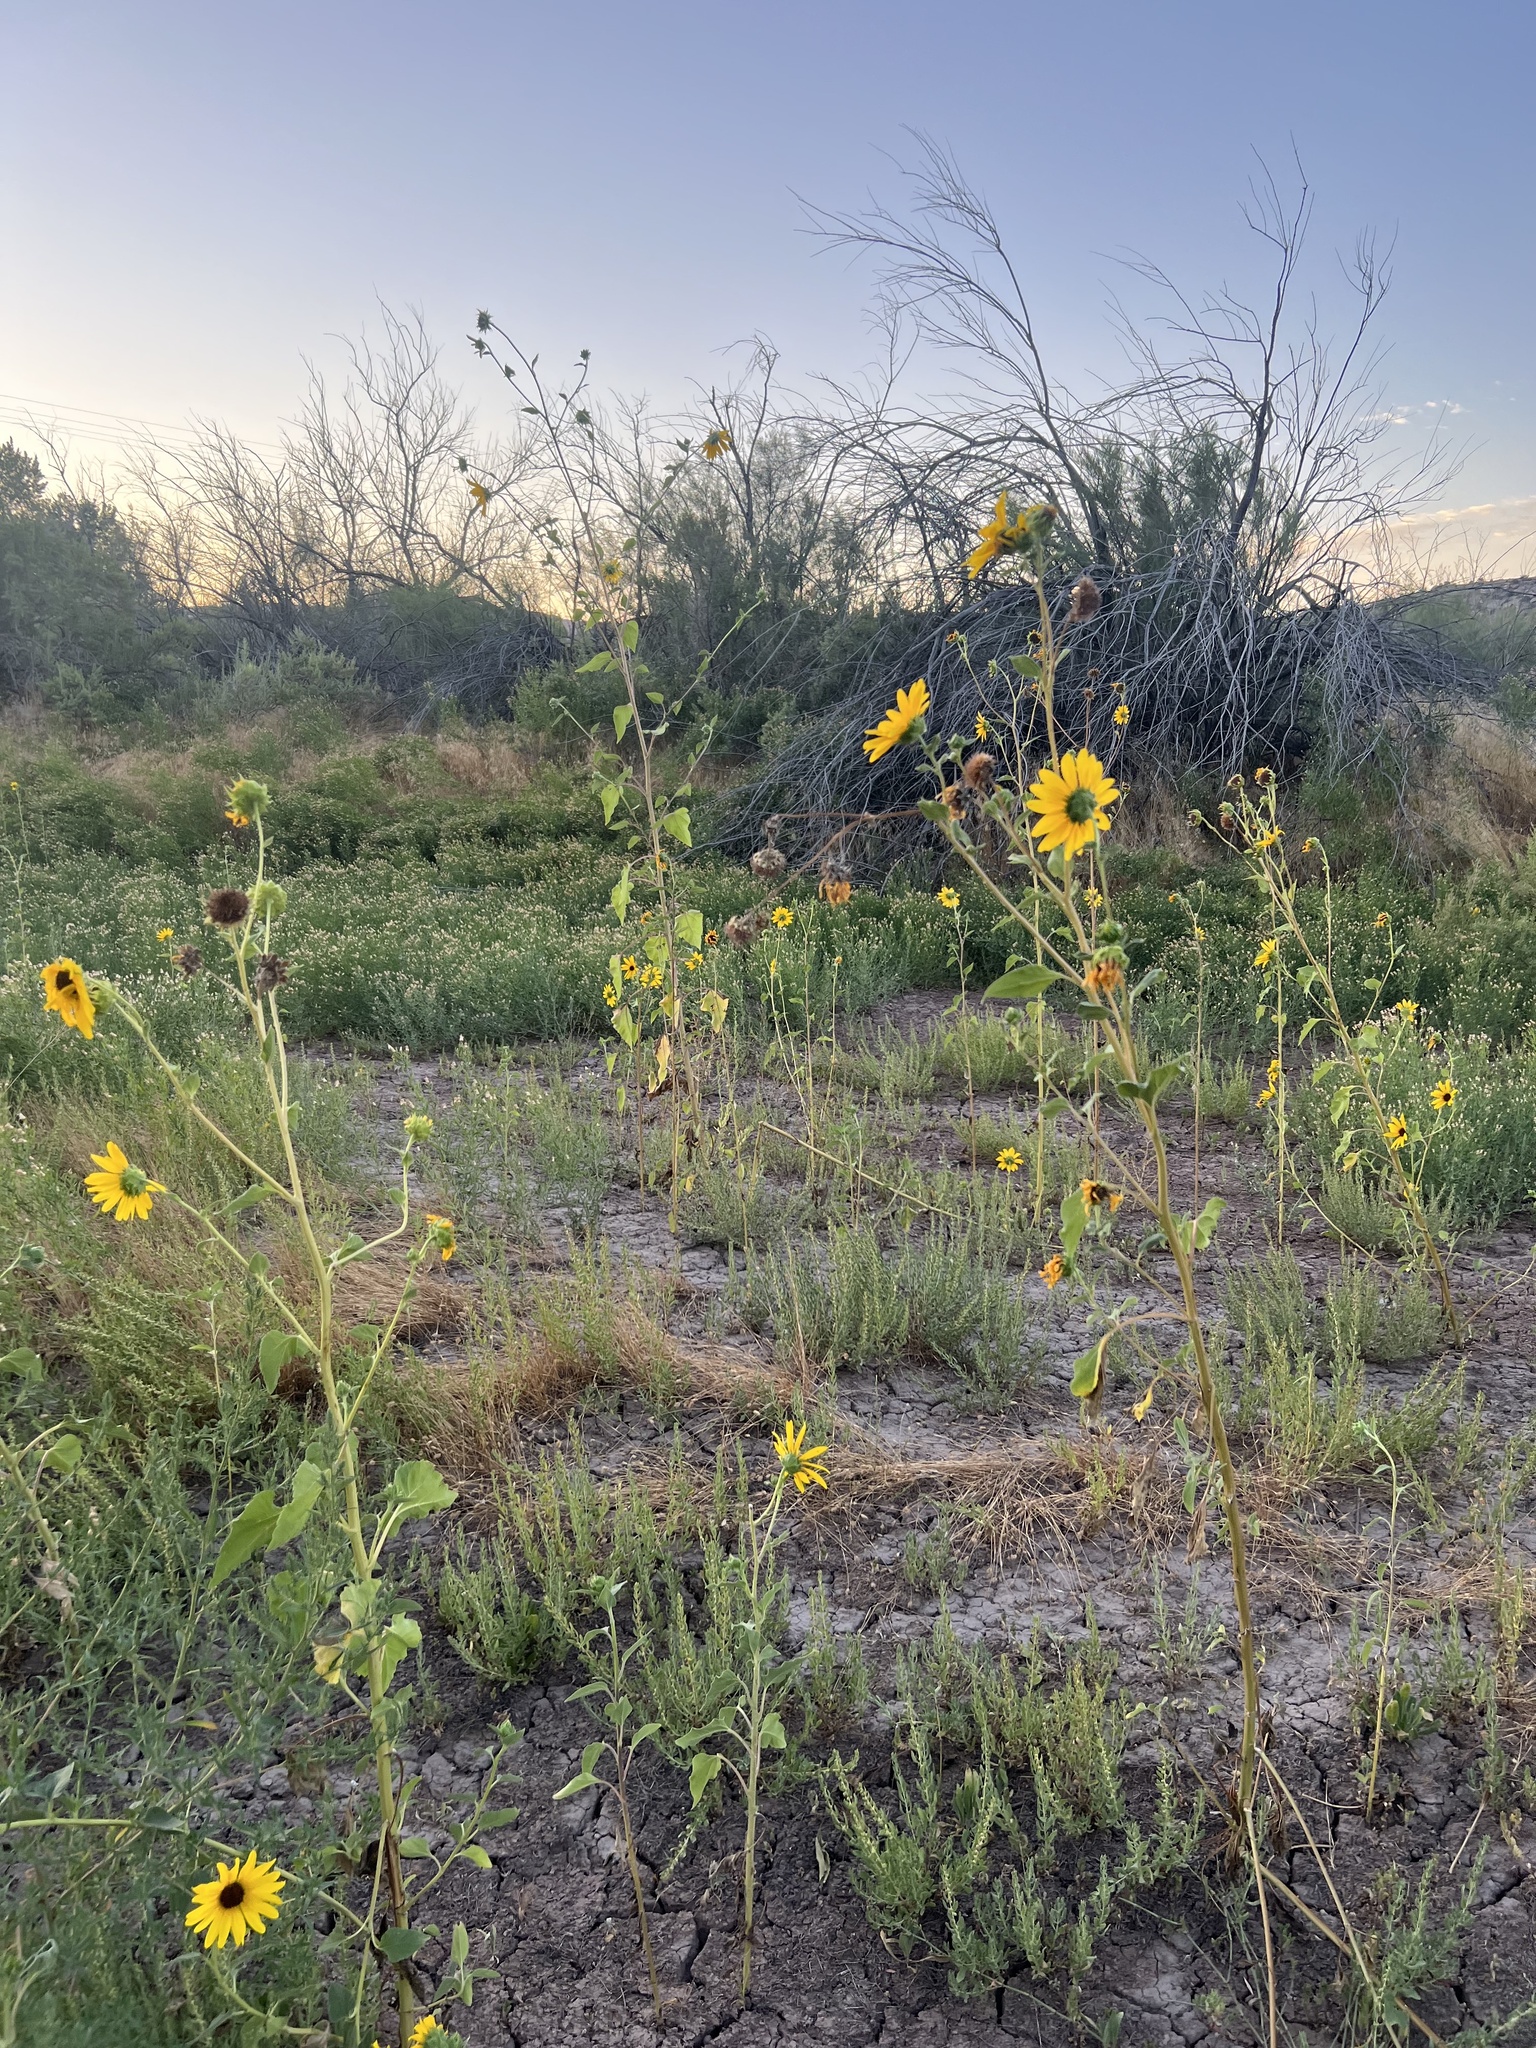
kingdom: Plantae
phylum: Tracheophyta
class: Magnoliopsida
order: Asterales
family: Asteraceae
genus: Helianthus
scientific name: Helianthus annuus
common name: Sunflower
